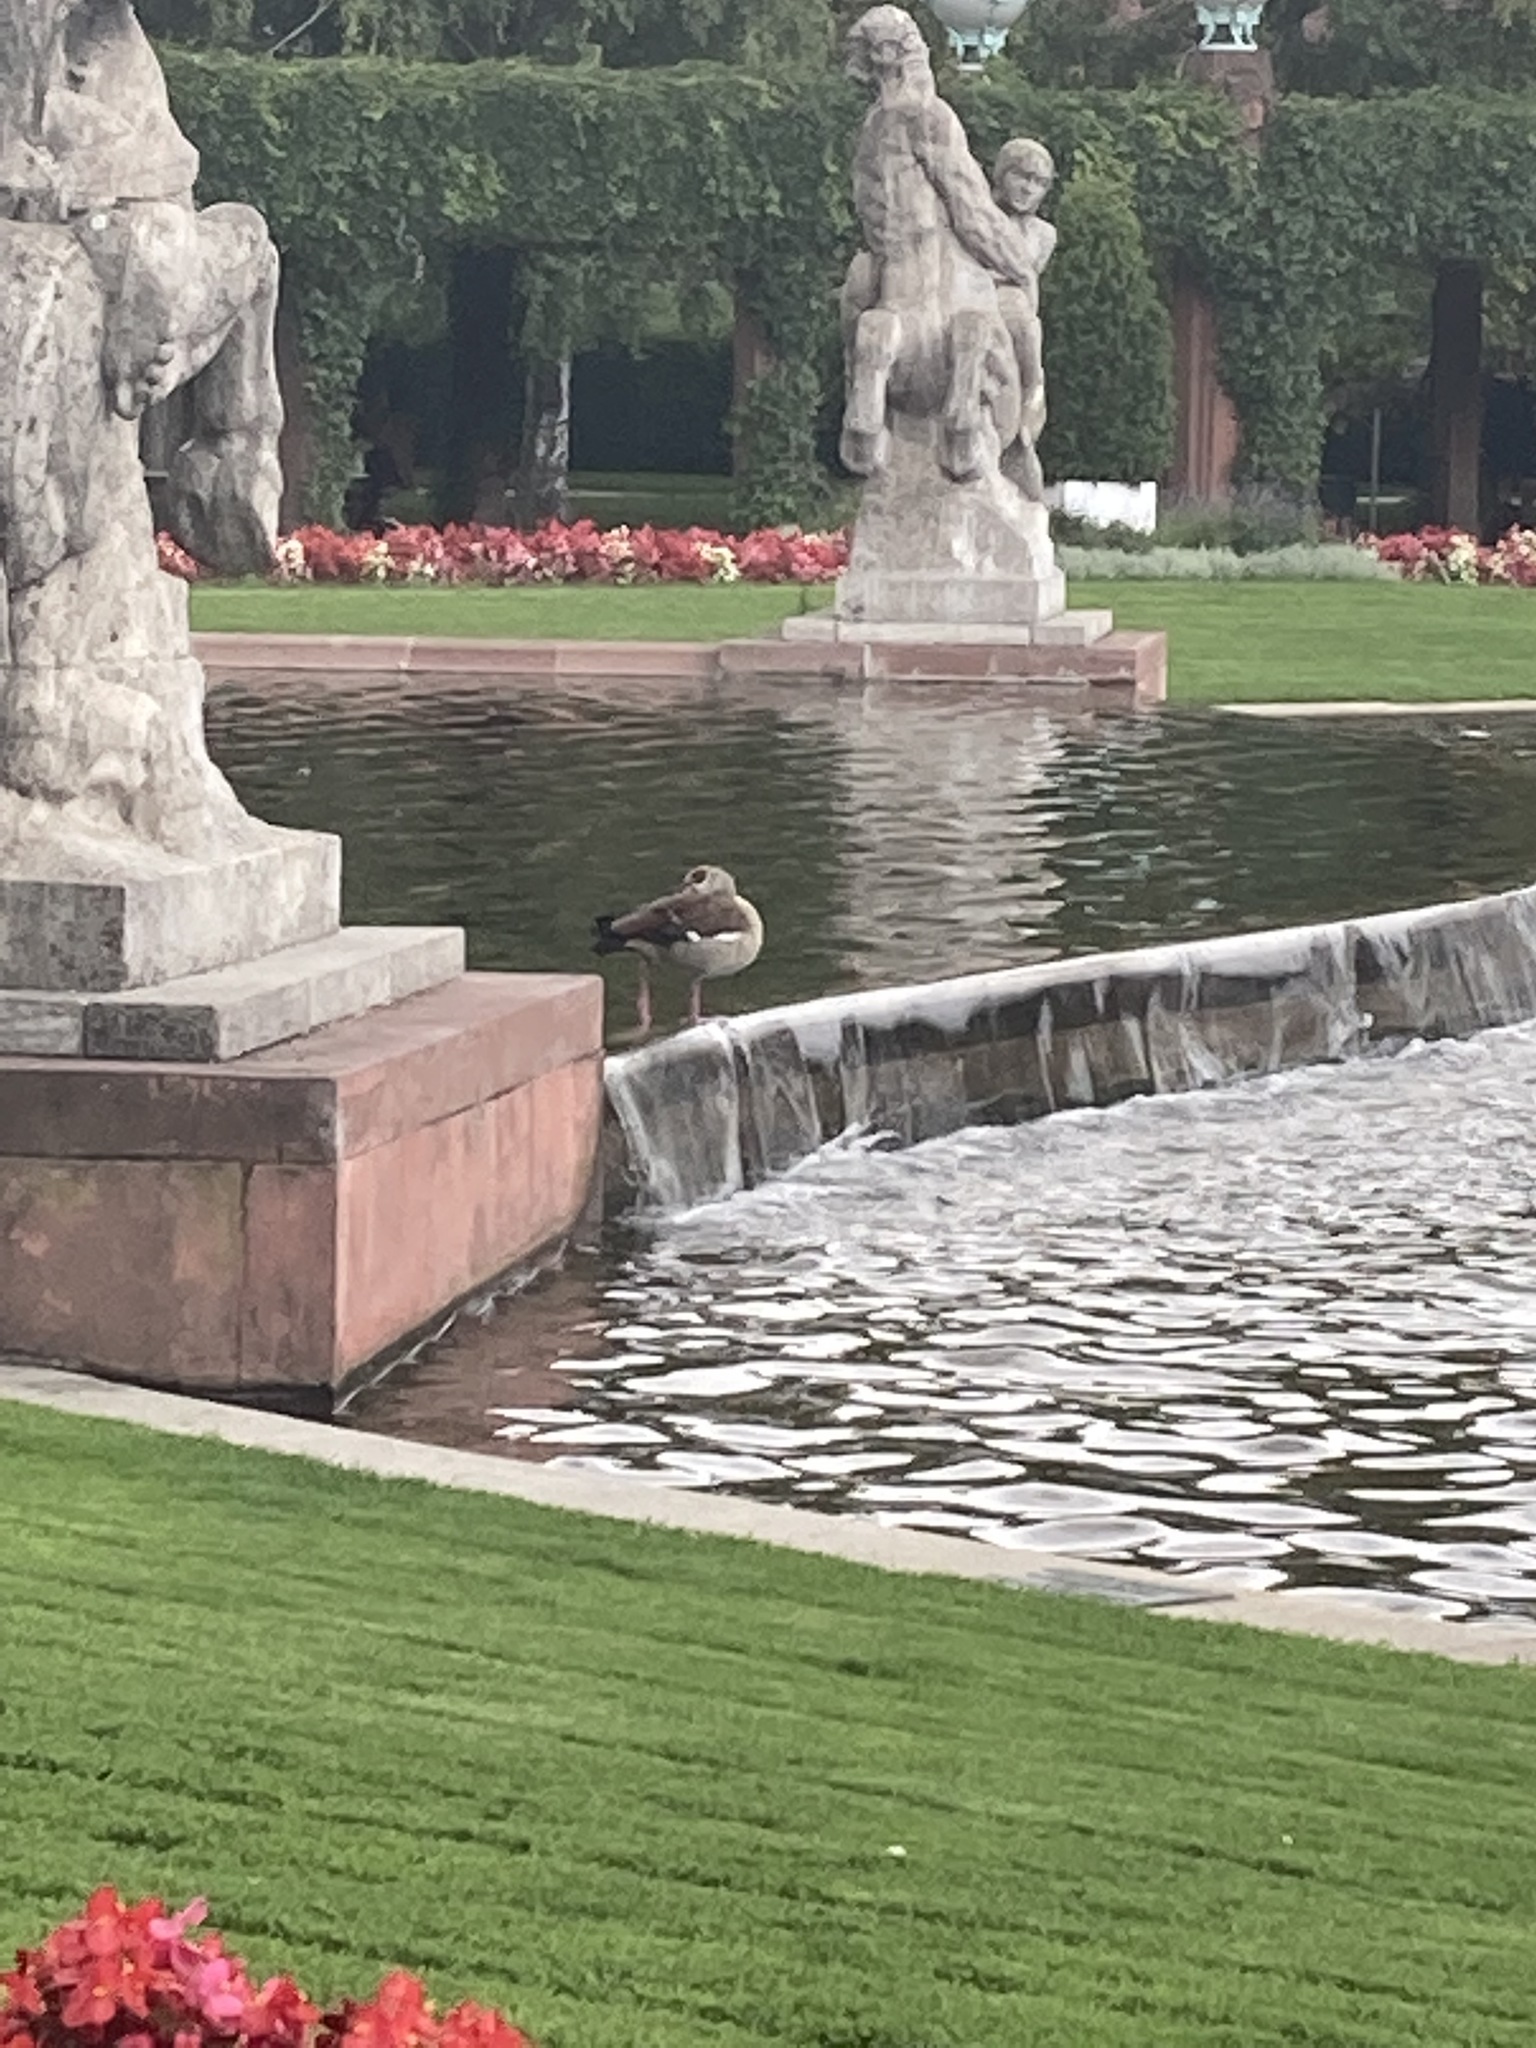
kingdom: Animalia
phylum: Chordata
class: Aves
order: Anseriformes
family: Anatidae
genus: Alopochen
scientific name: Alopochen aegyptiaca
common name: Egyptian goose
